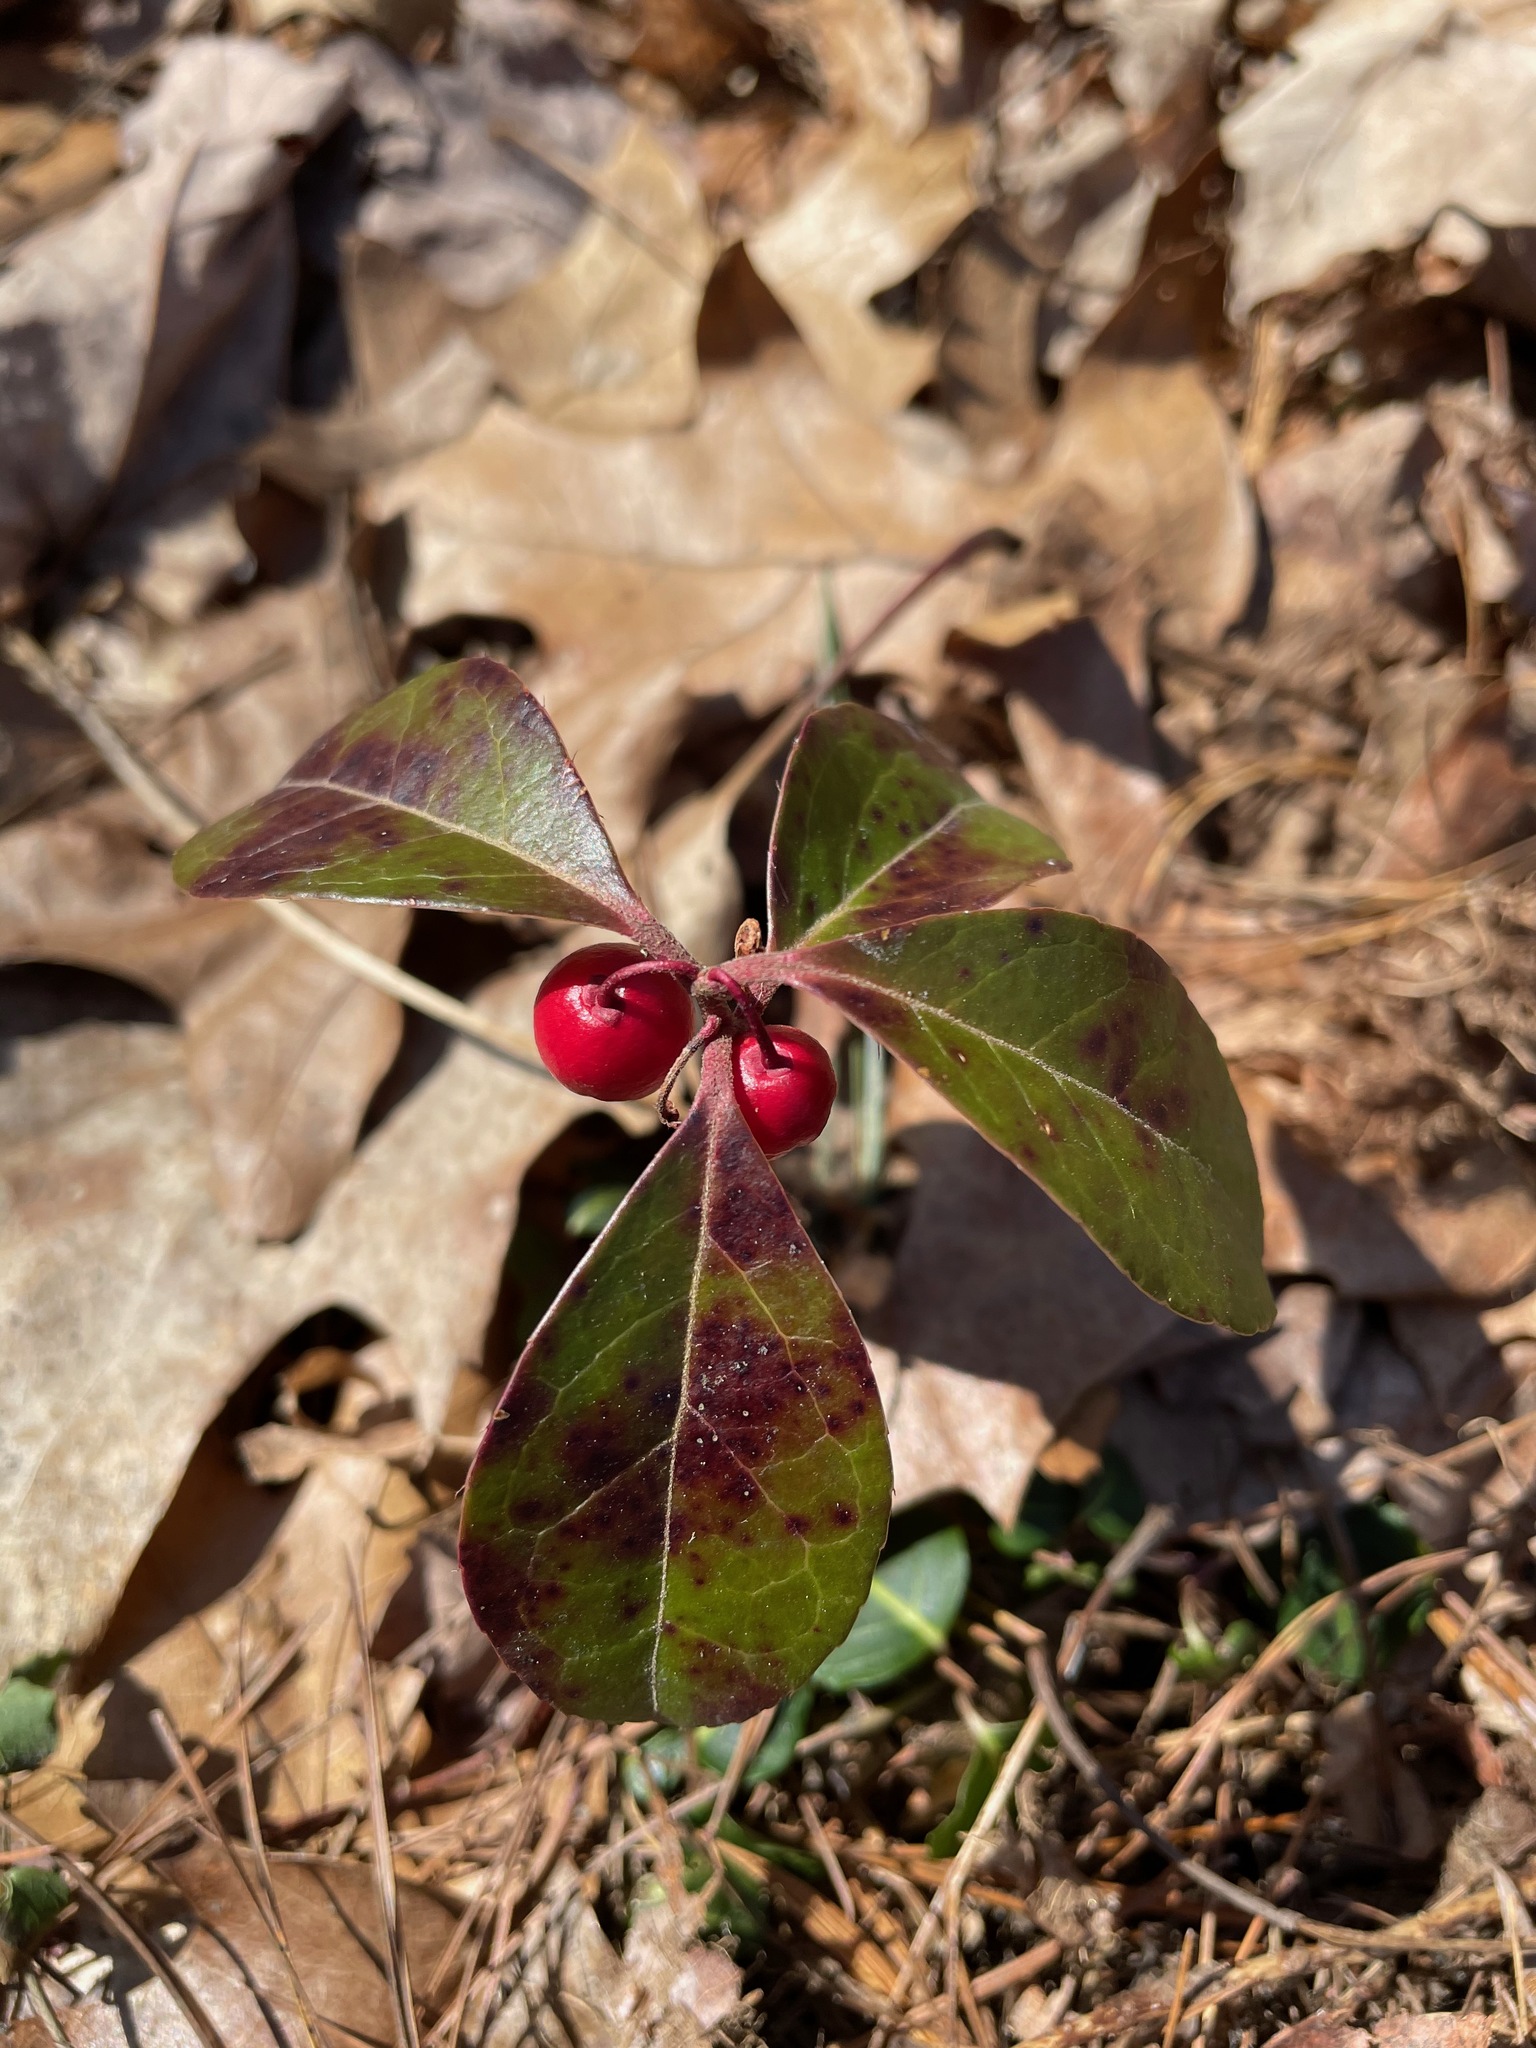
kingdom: Plantae
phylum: Tracheophyta
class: Magnoliopsida
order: Ericales
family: Ericaceae
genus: Gaultheria
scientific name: Gaultheria procumbens
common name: Checkerberry
